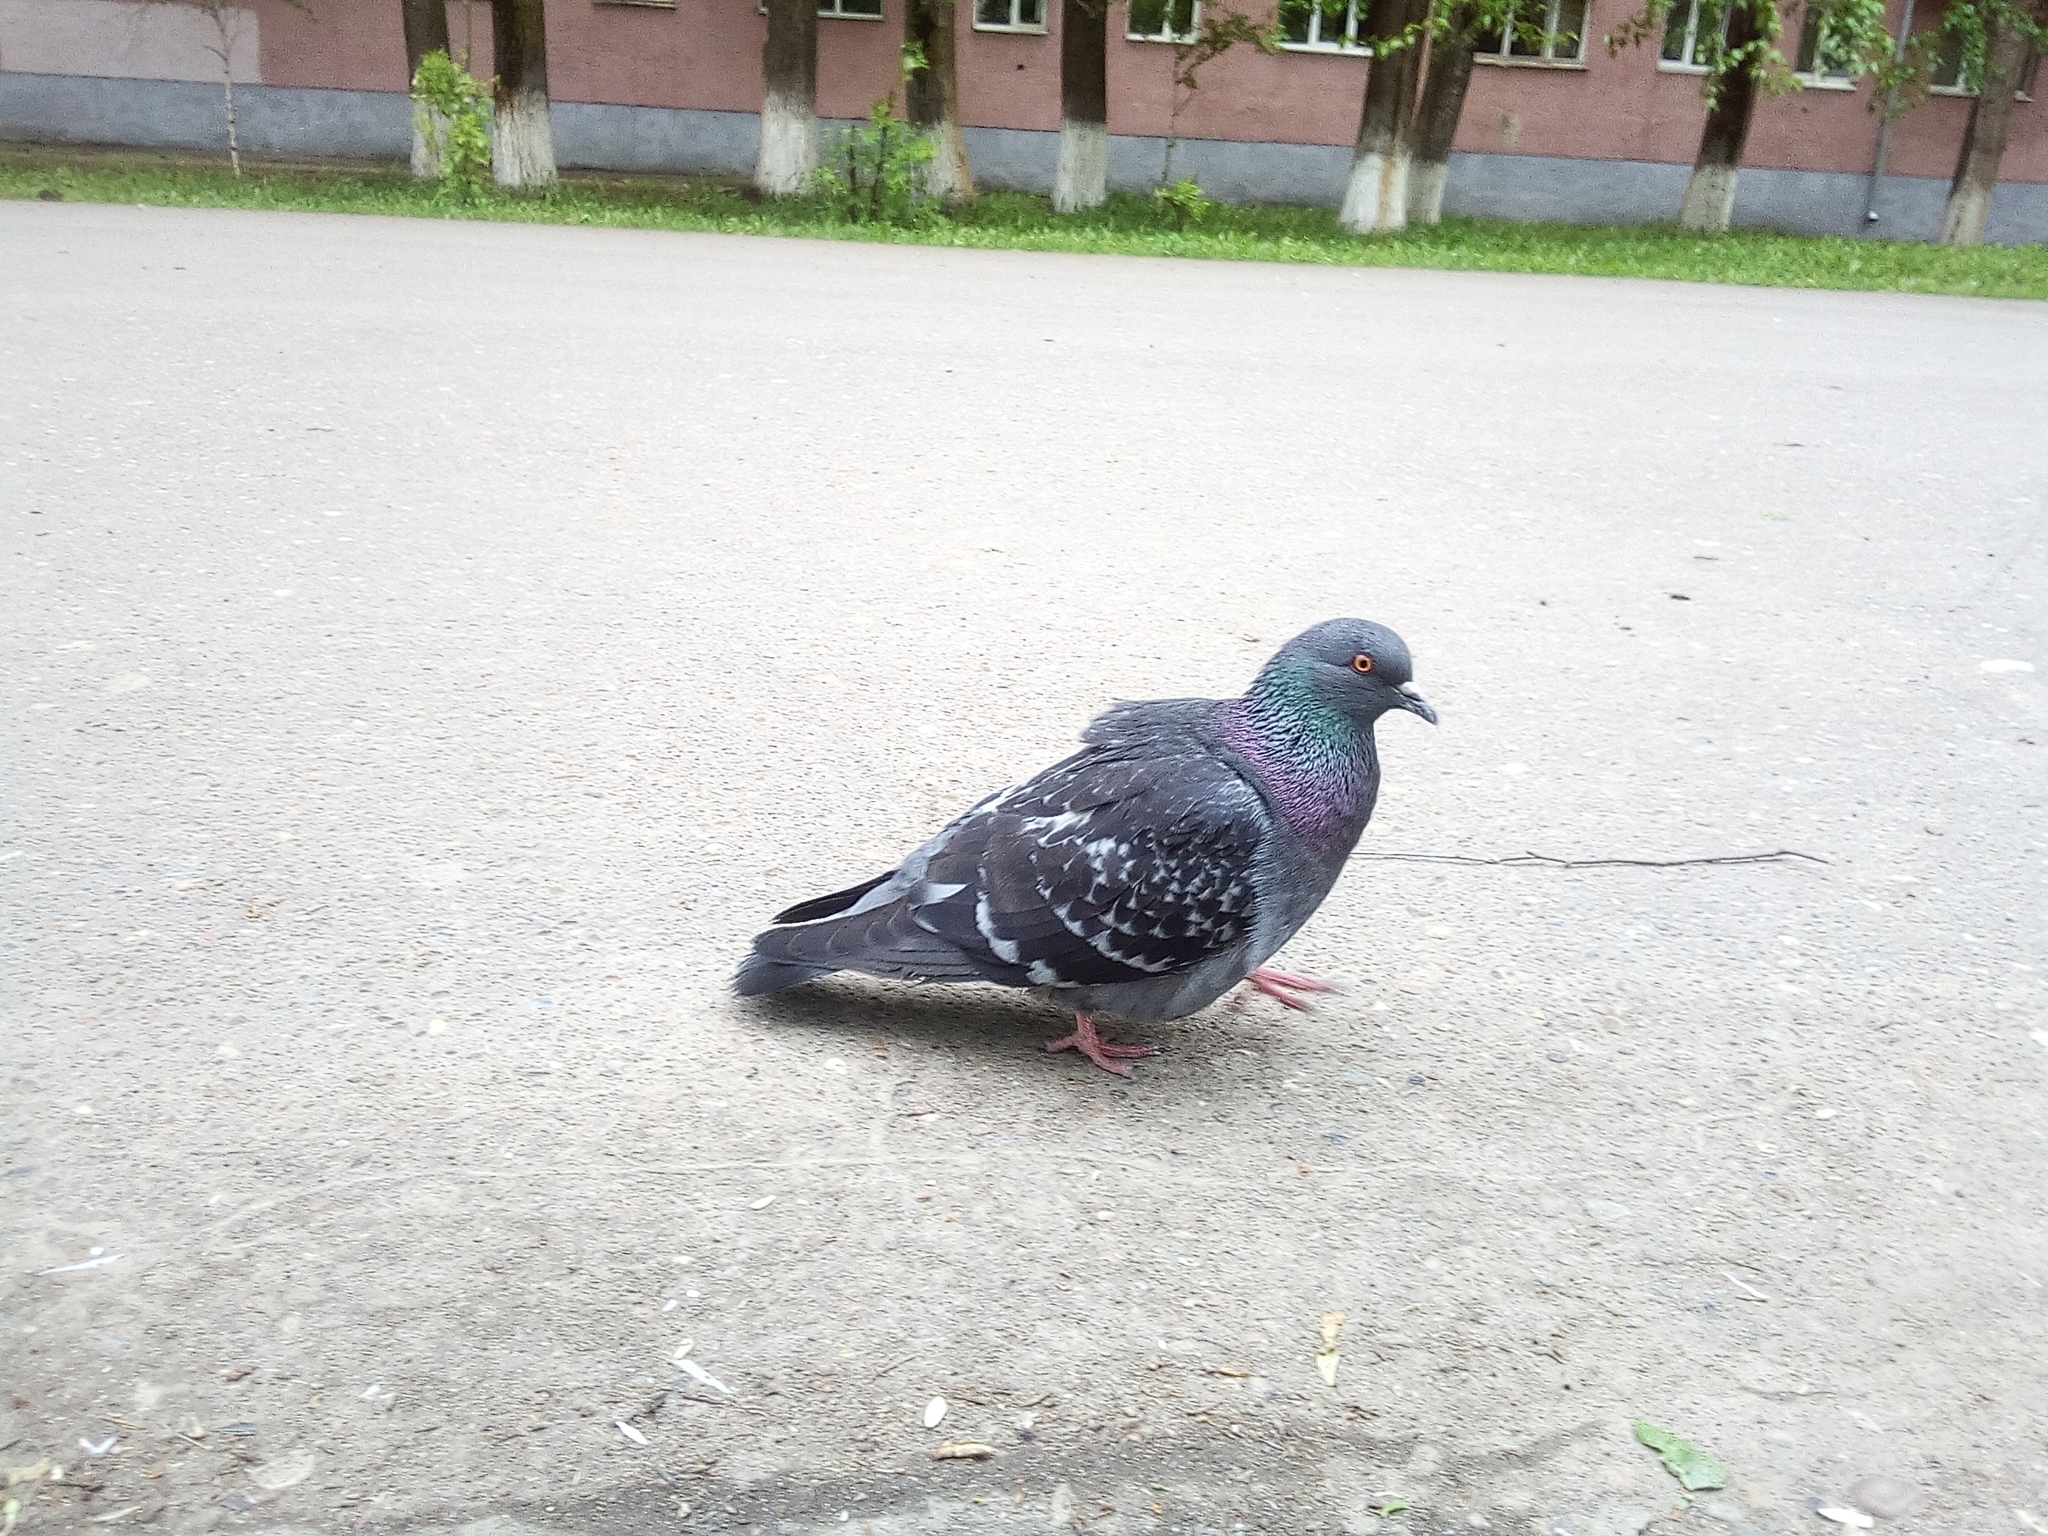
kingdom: Animalia
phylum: Chordata
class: Aves
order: Columbiformes
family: Columbidae
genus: Columba
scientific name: Columba livia
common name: Rock pigeon
